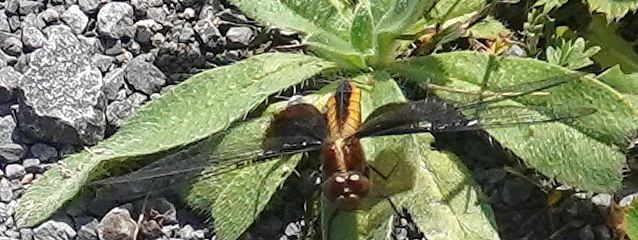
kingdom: Animalia
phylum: Arthropoda
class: Insecta
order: Odonata
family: Libellulidae
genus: Libellula
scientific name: Libellula luctuosa
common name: Widow skimmer
